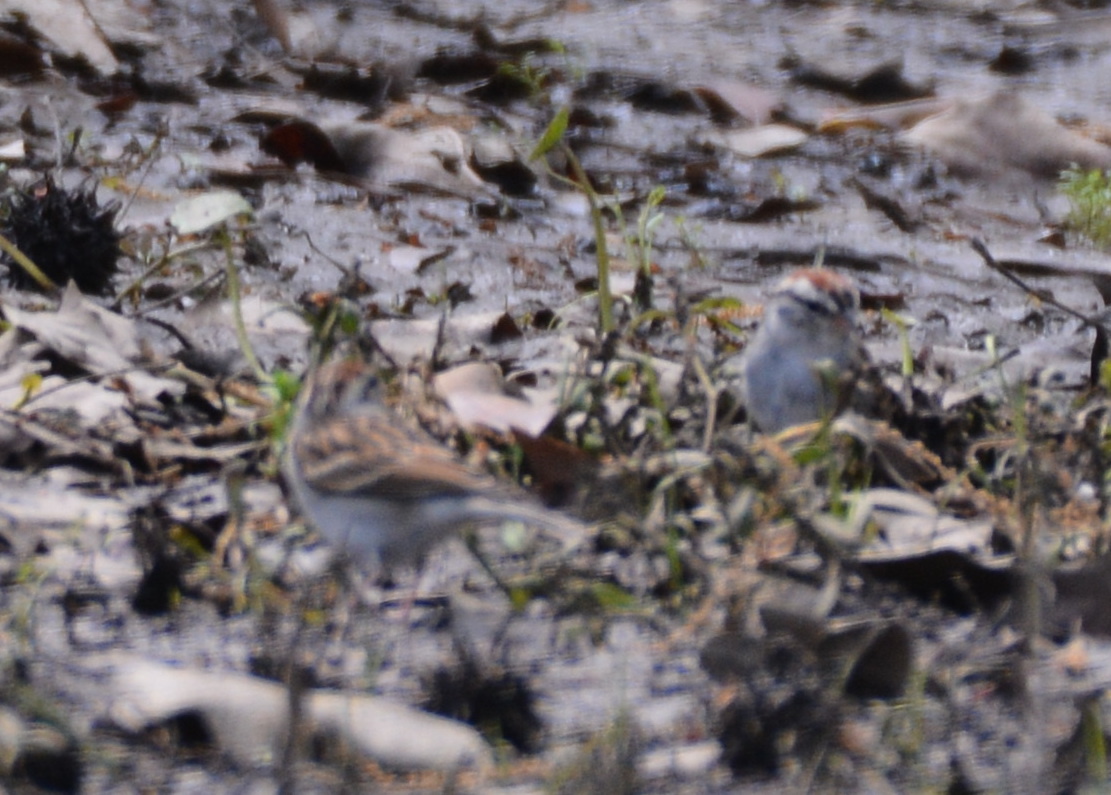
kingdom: Animalia
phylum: Chordata
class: Aves
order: Passeriformes
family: Passerellidae
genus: Spizella
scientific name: Spizella passerina
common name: Chipping sparrow
